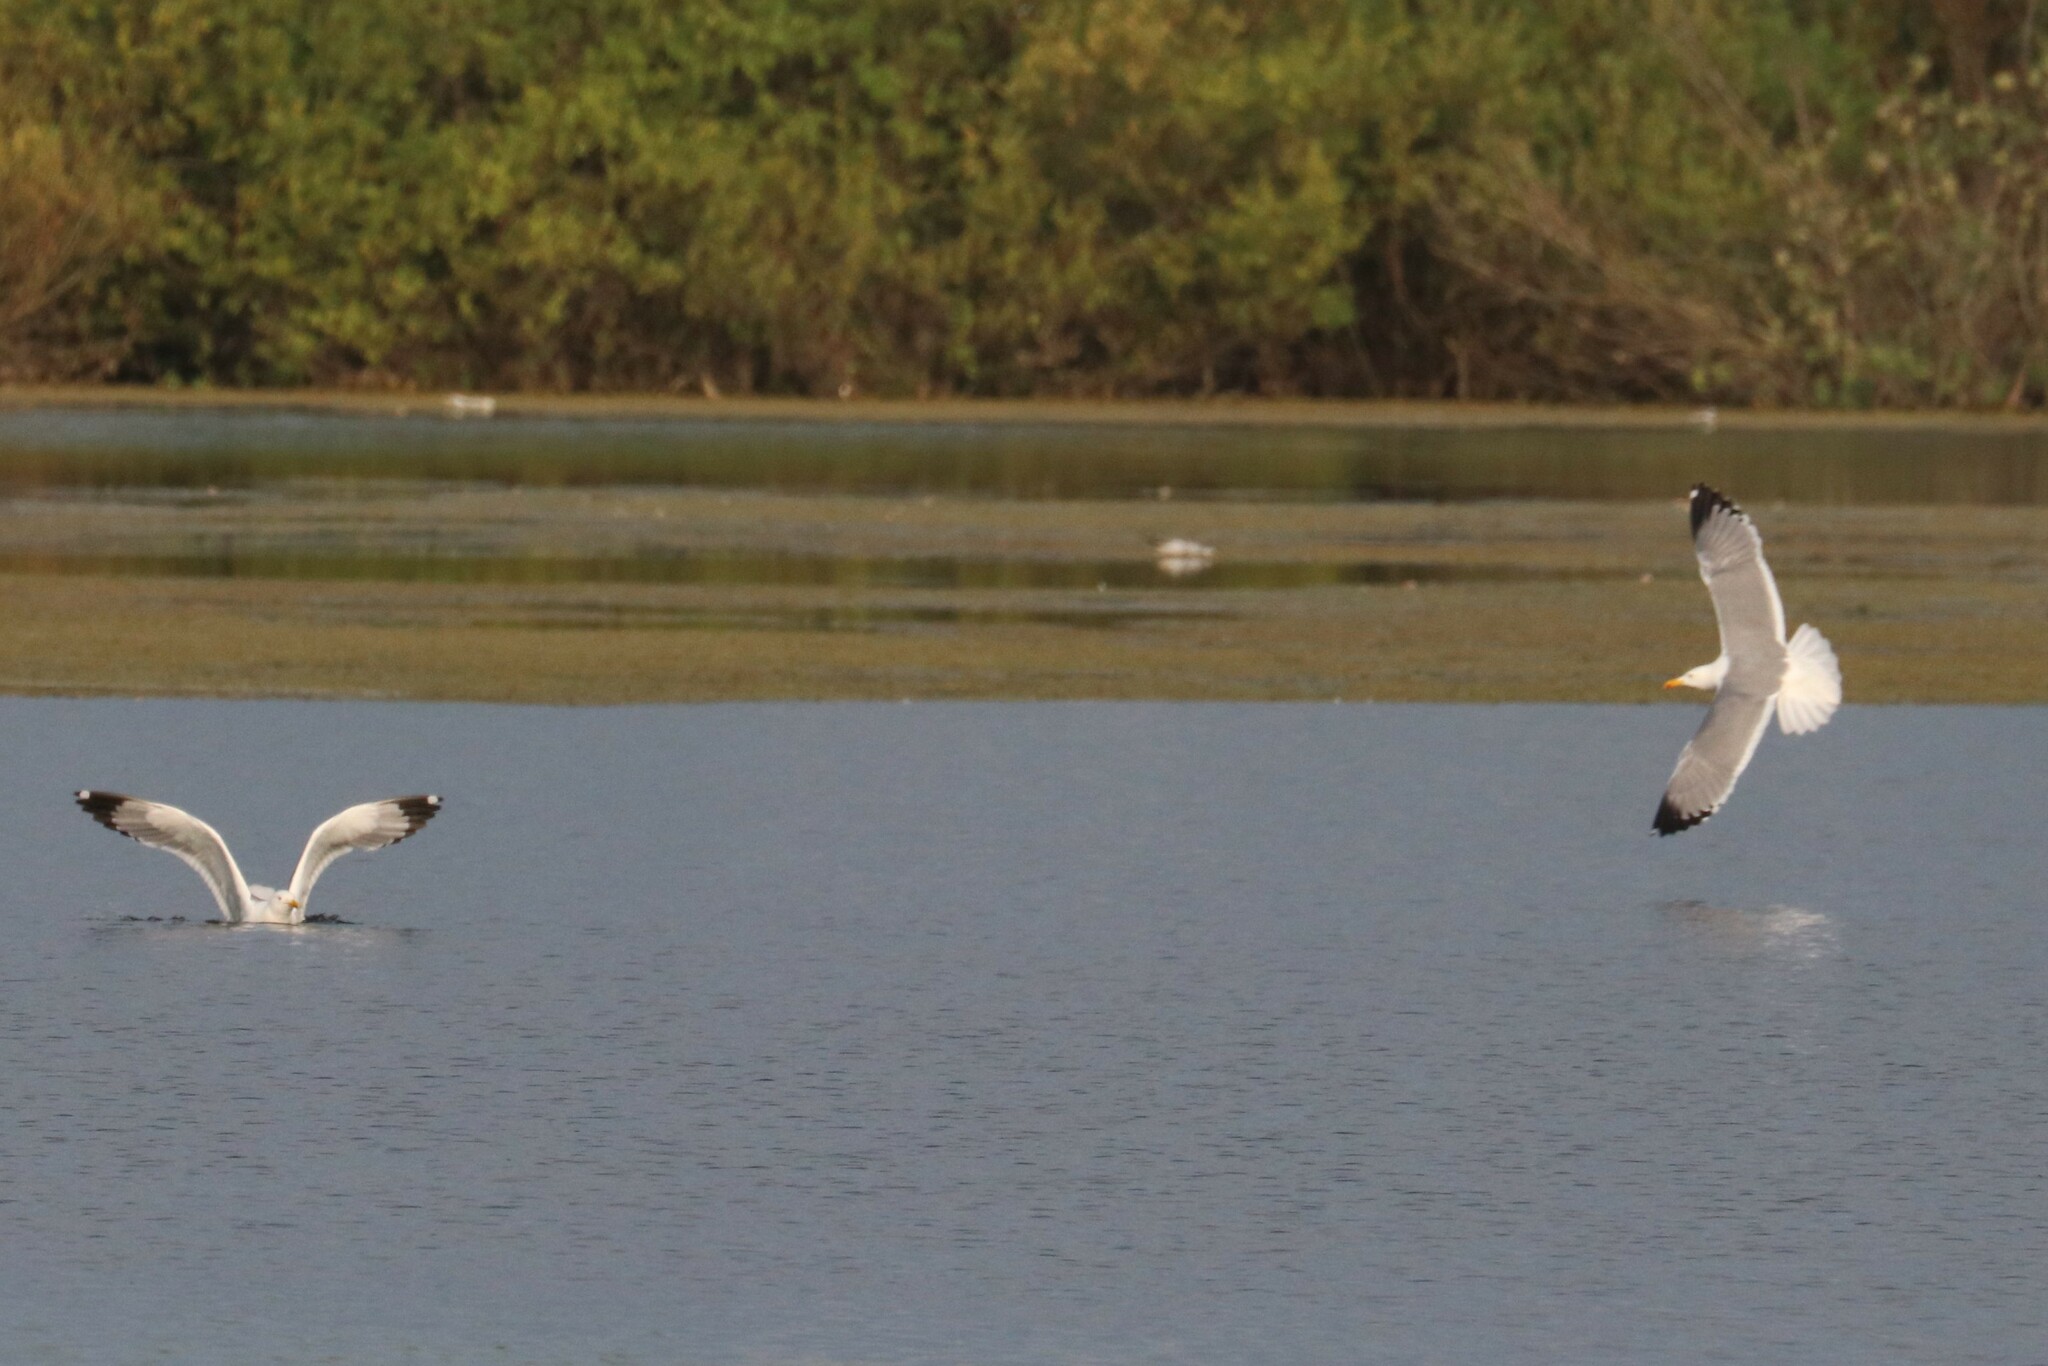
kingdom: Animalia
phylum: Chordata
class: Aves
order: Charadriiformes
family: Laridae
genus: Larus
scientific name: Larus fuscus
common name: Lesser black-backed gull
